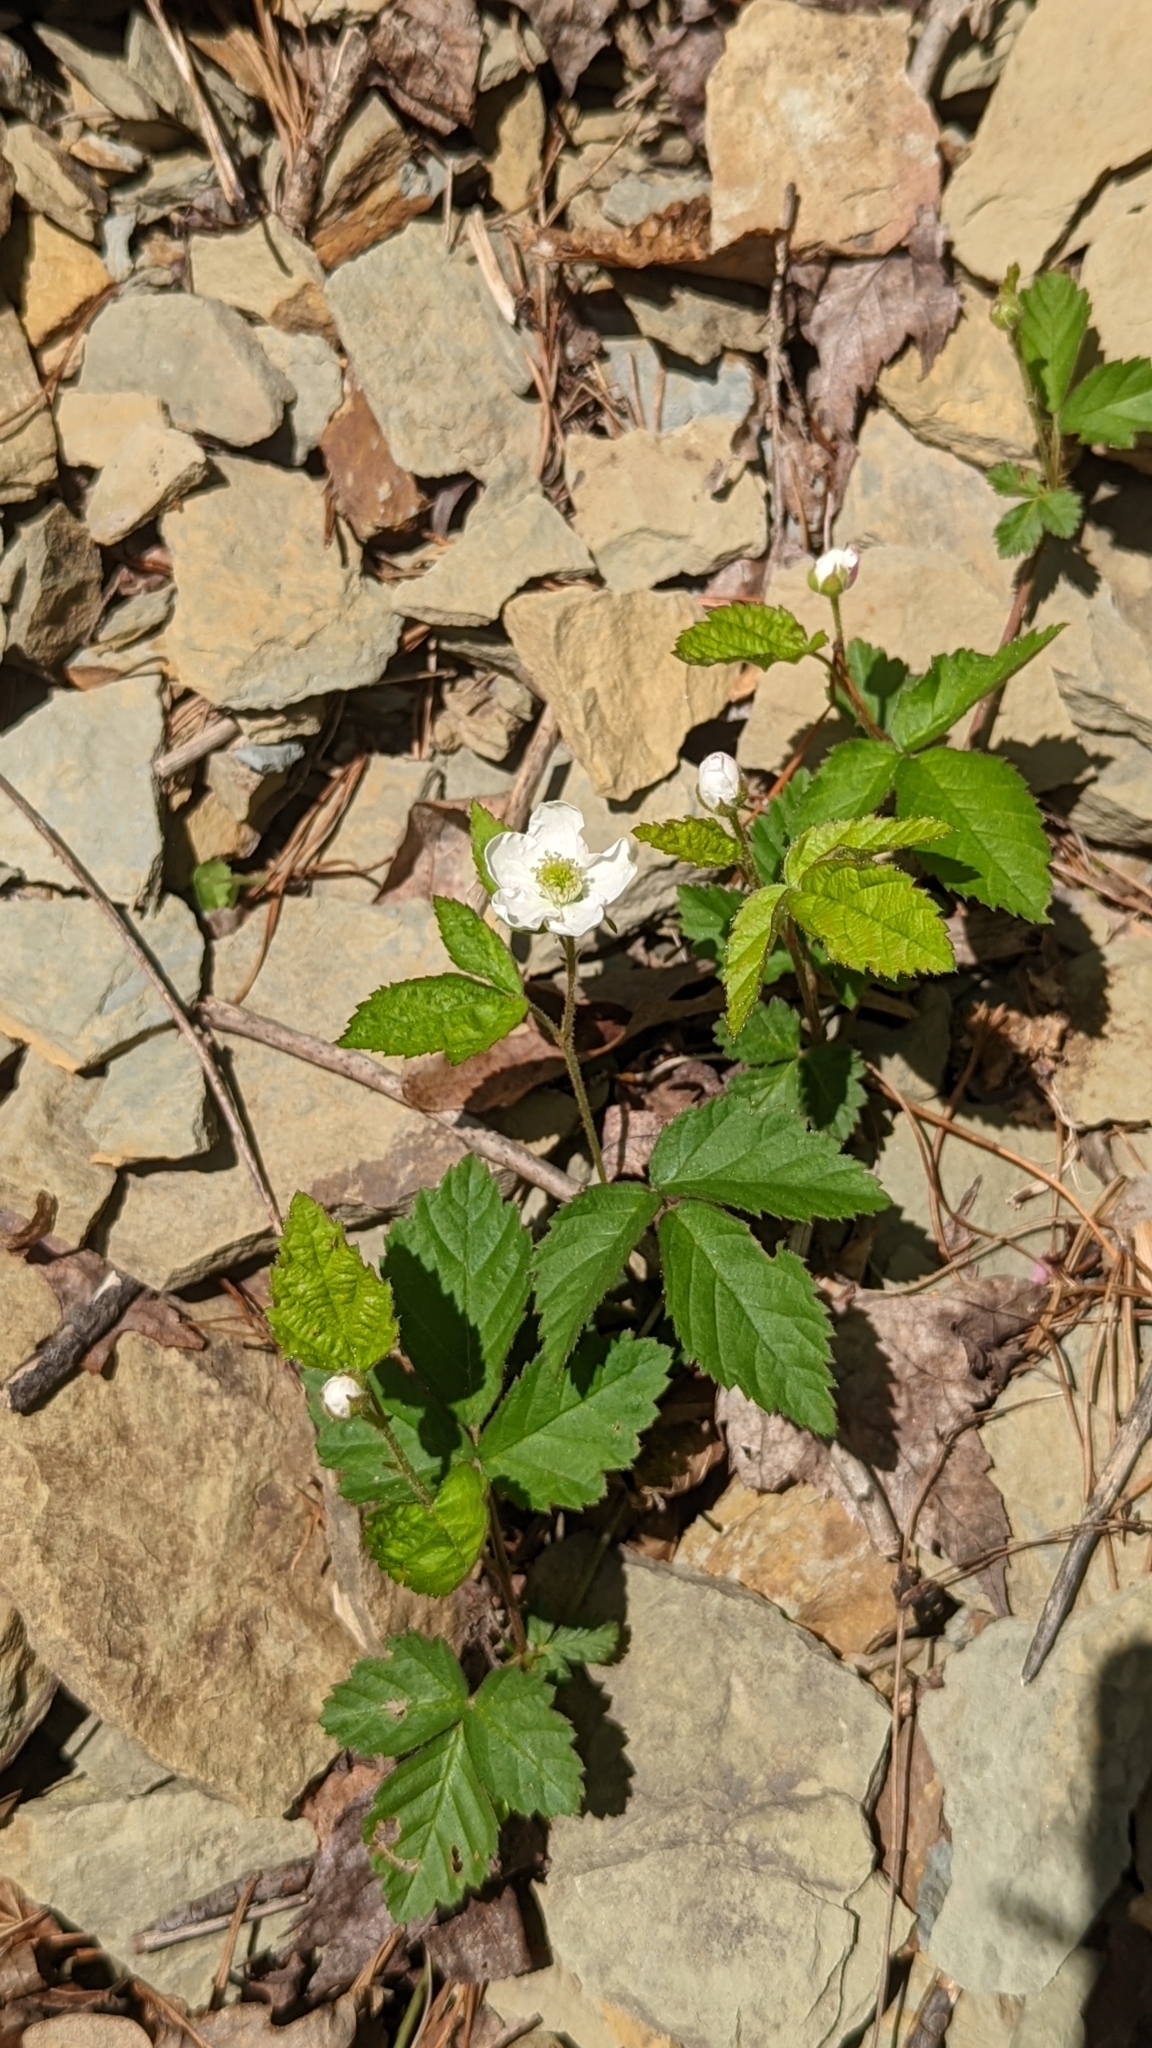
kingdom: Plantae
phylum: Tracheophyta
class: Magnoliopsida
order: Rosales
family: Rosaceae
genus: Rubus
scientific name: Rubus flagellaris
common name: American dewberry
